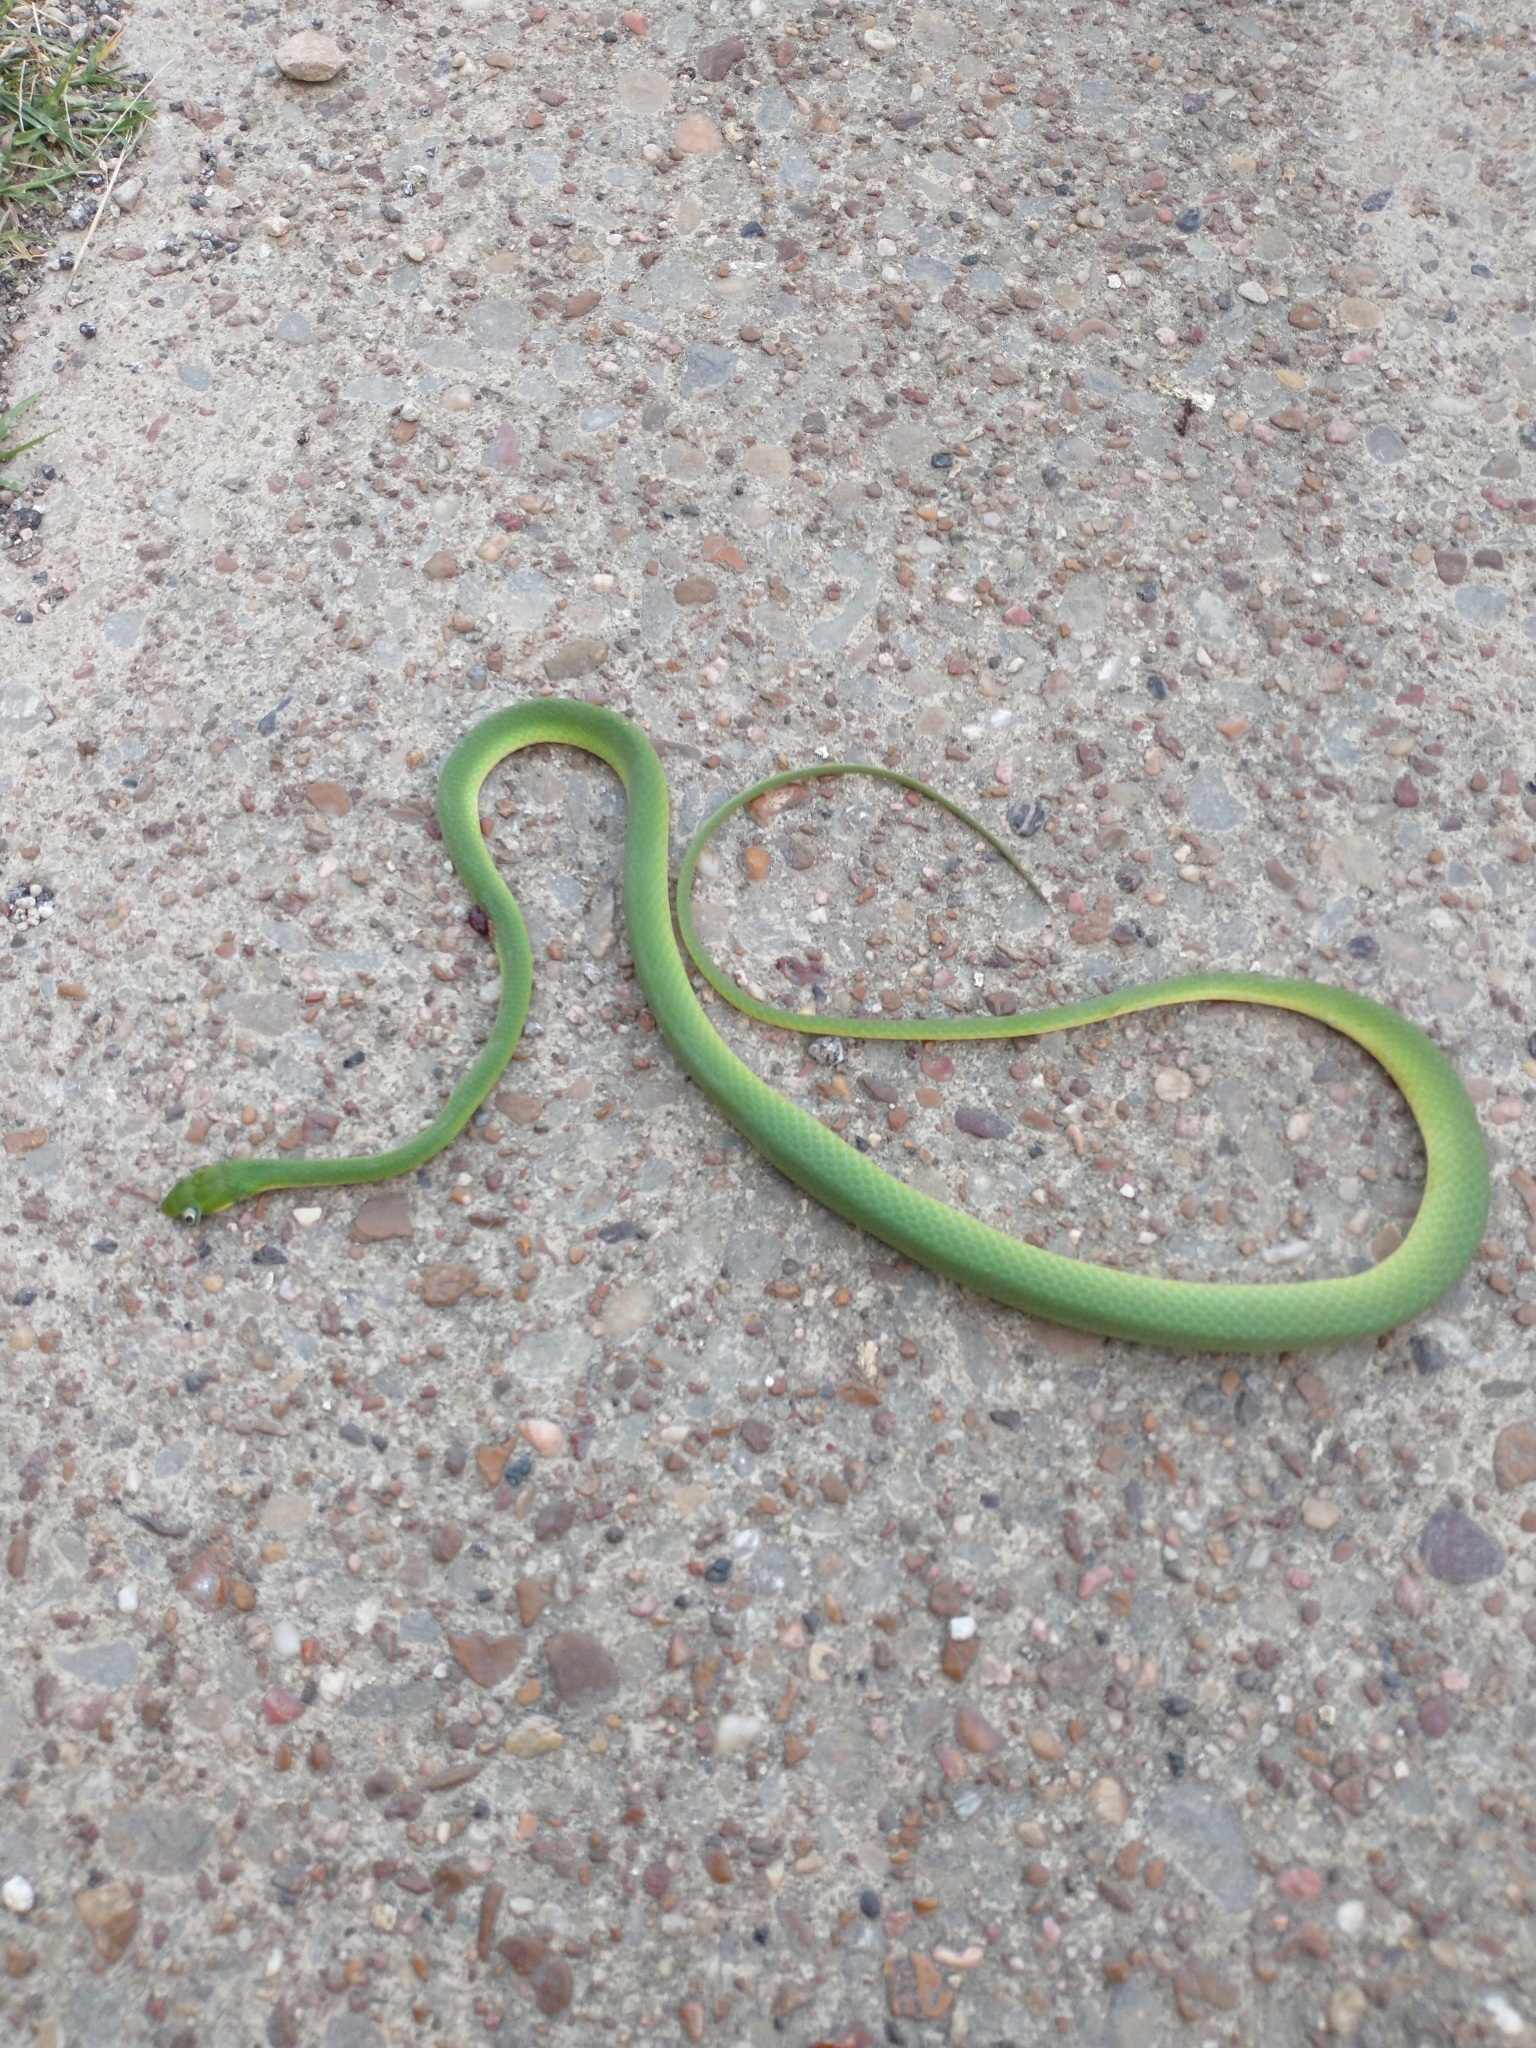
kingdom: Animalia
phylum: Chordata
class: Squamata
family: Colubridae
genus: Opheodrys
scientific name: Opheodrys aestivus
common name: Rough greensnake
